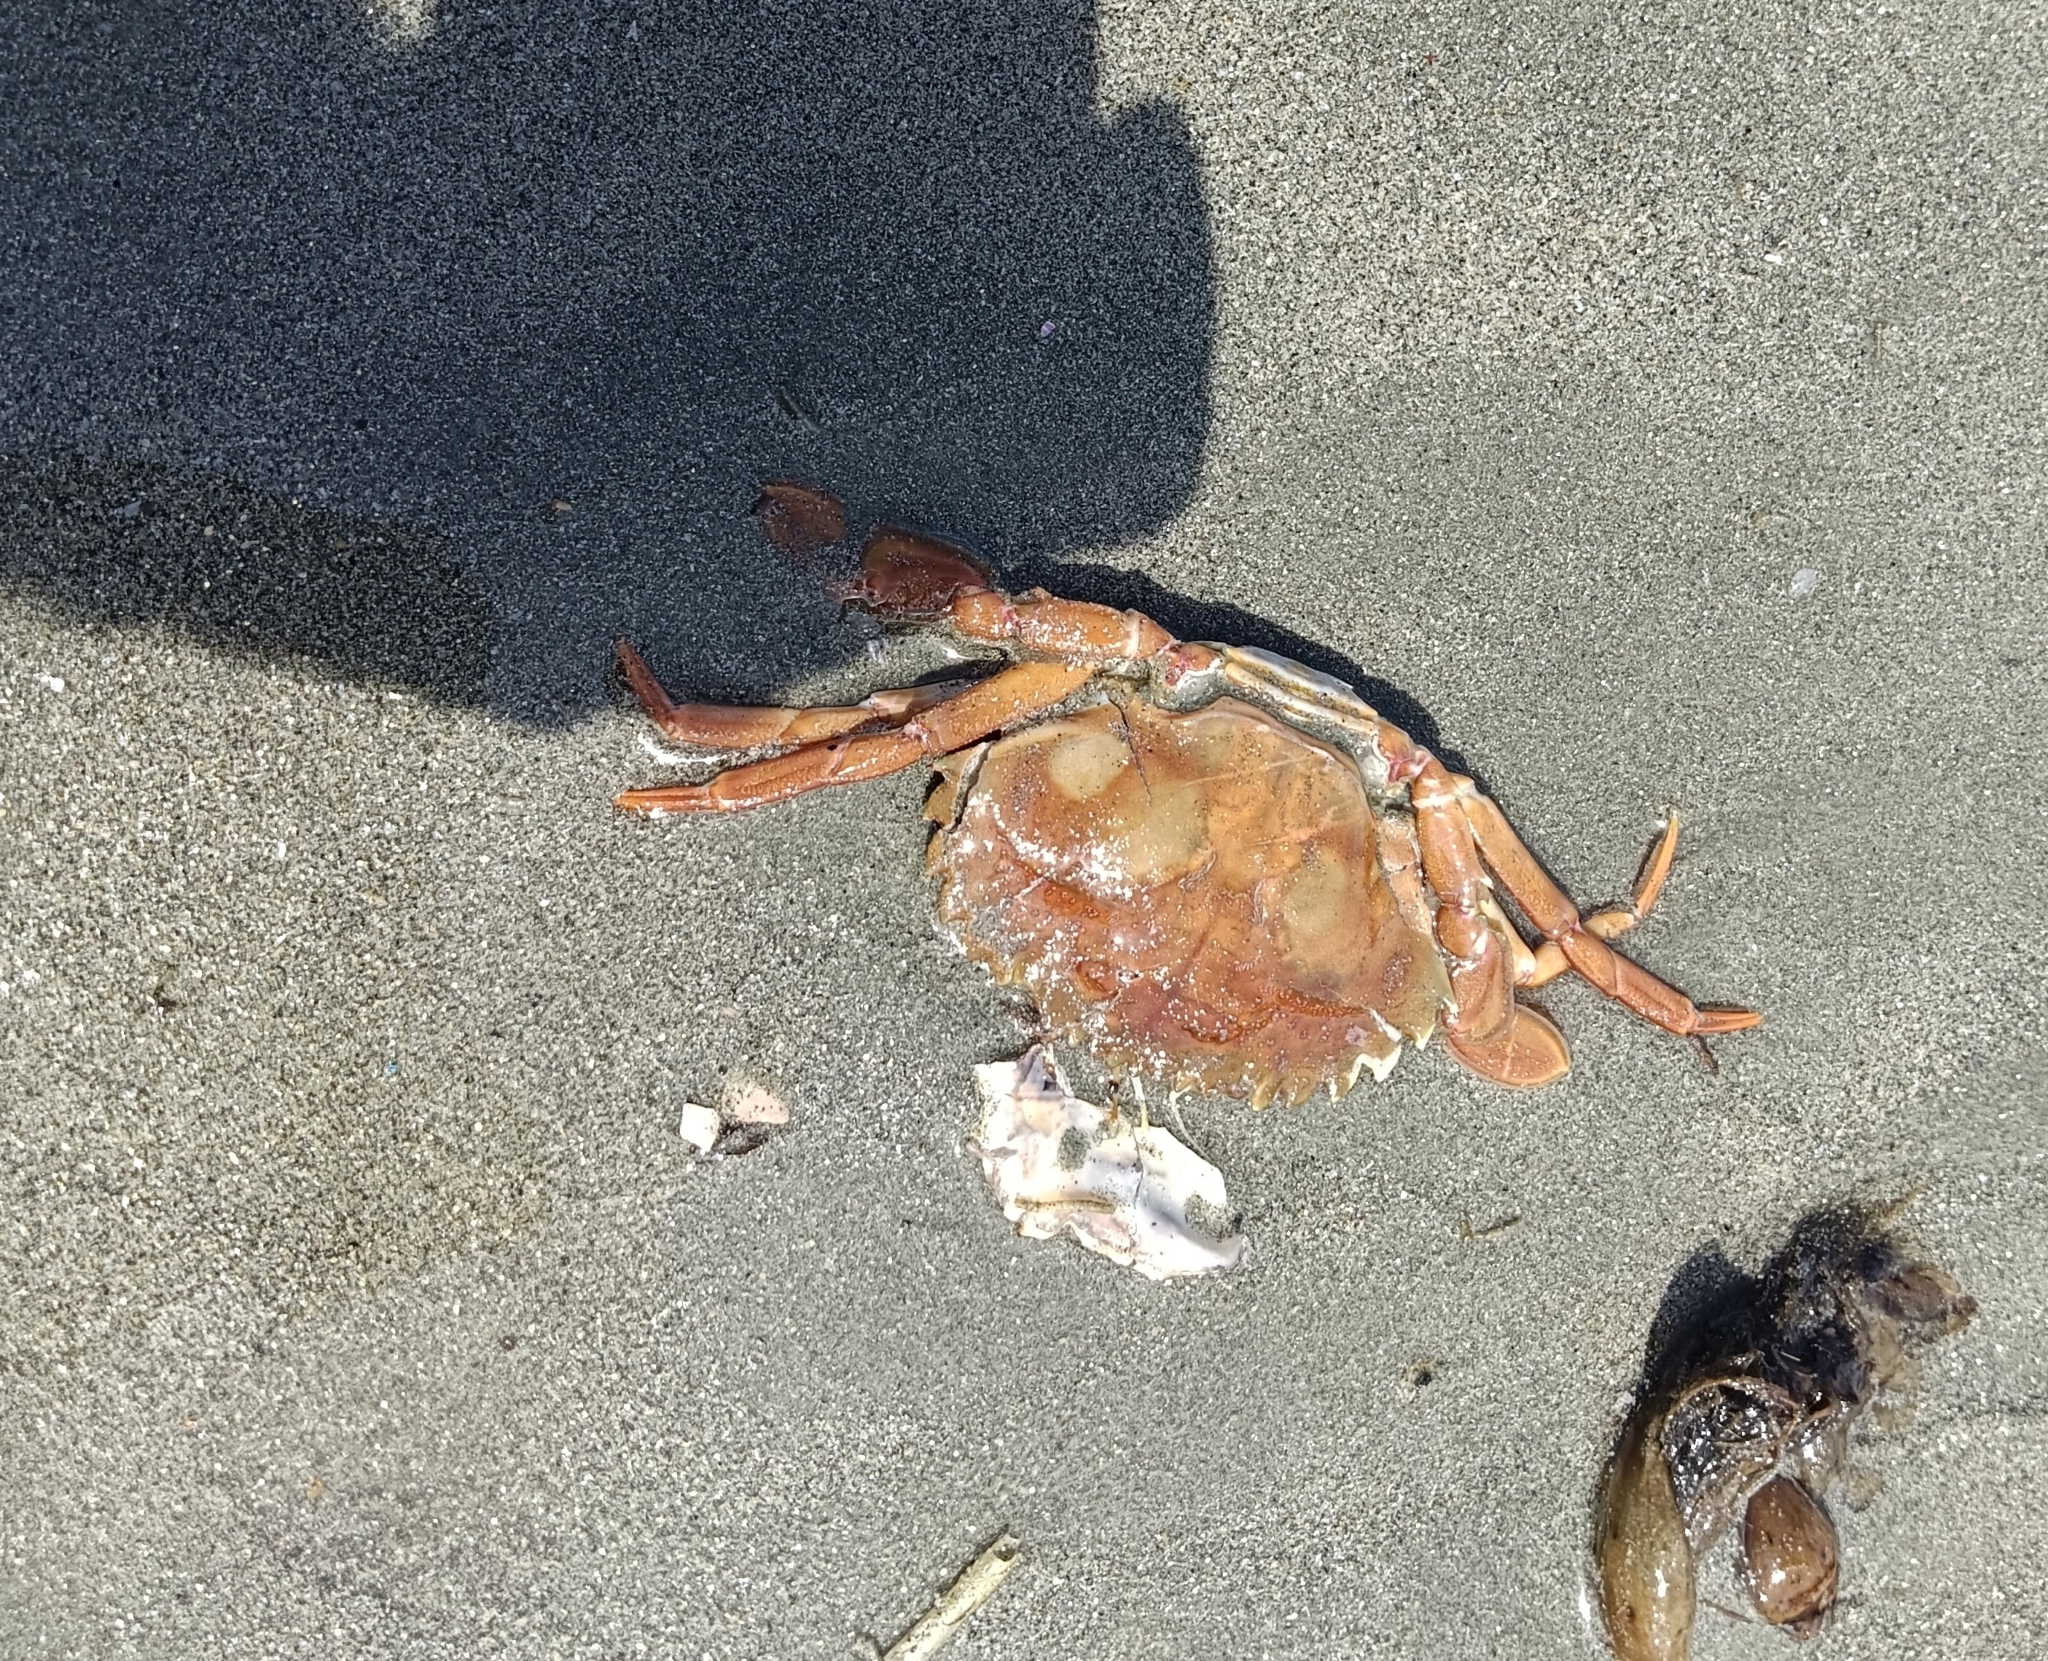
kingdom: Animalia
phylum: Arthropoda
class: Malacostraca
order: Decapoda
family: Portunidae
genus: Charybdis
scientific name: Charybdis lucifer
